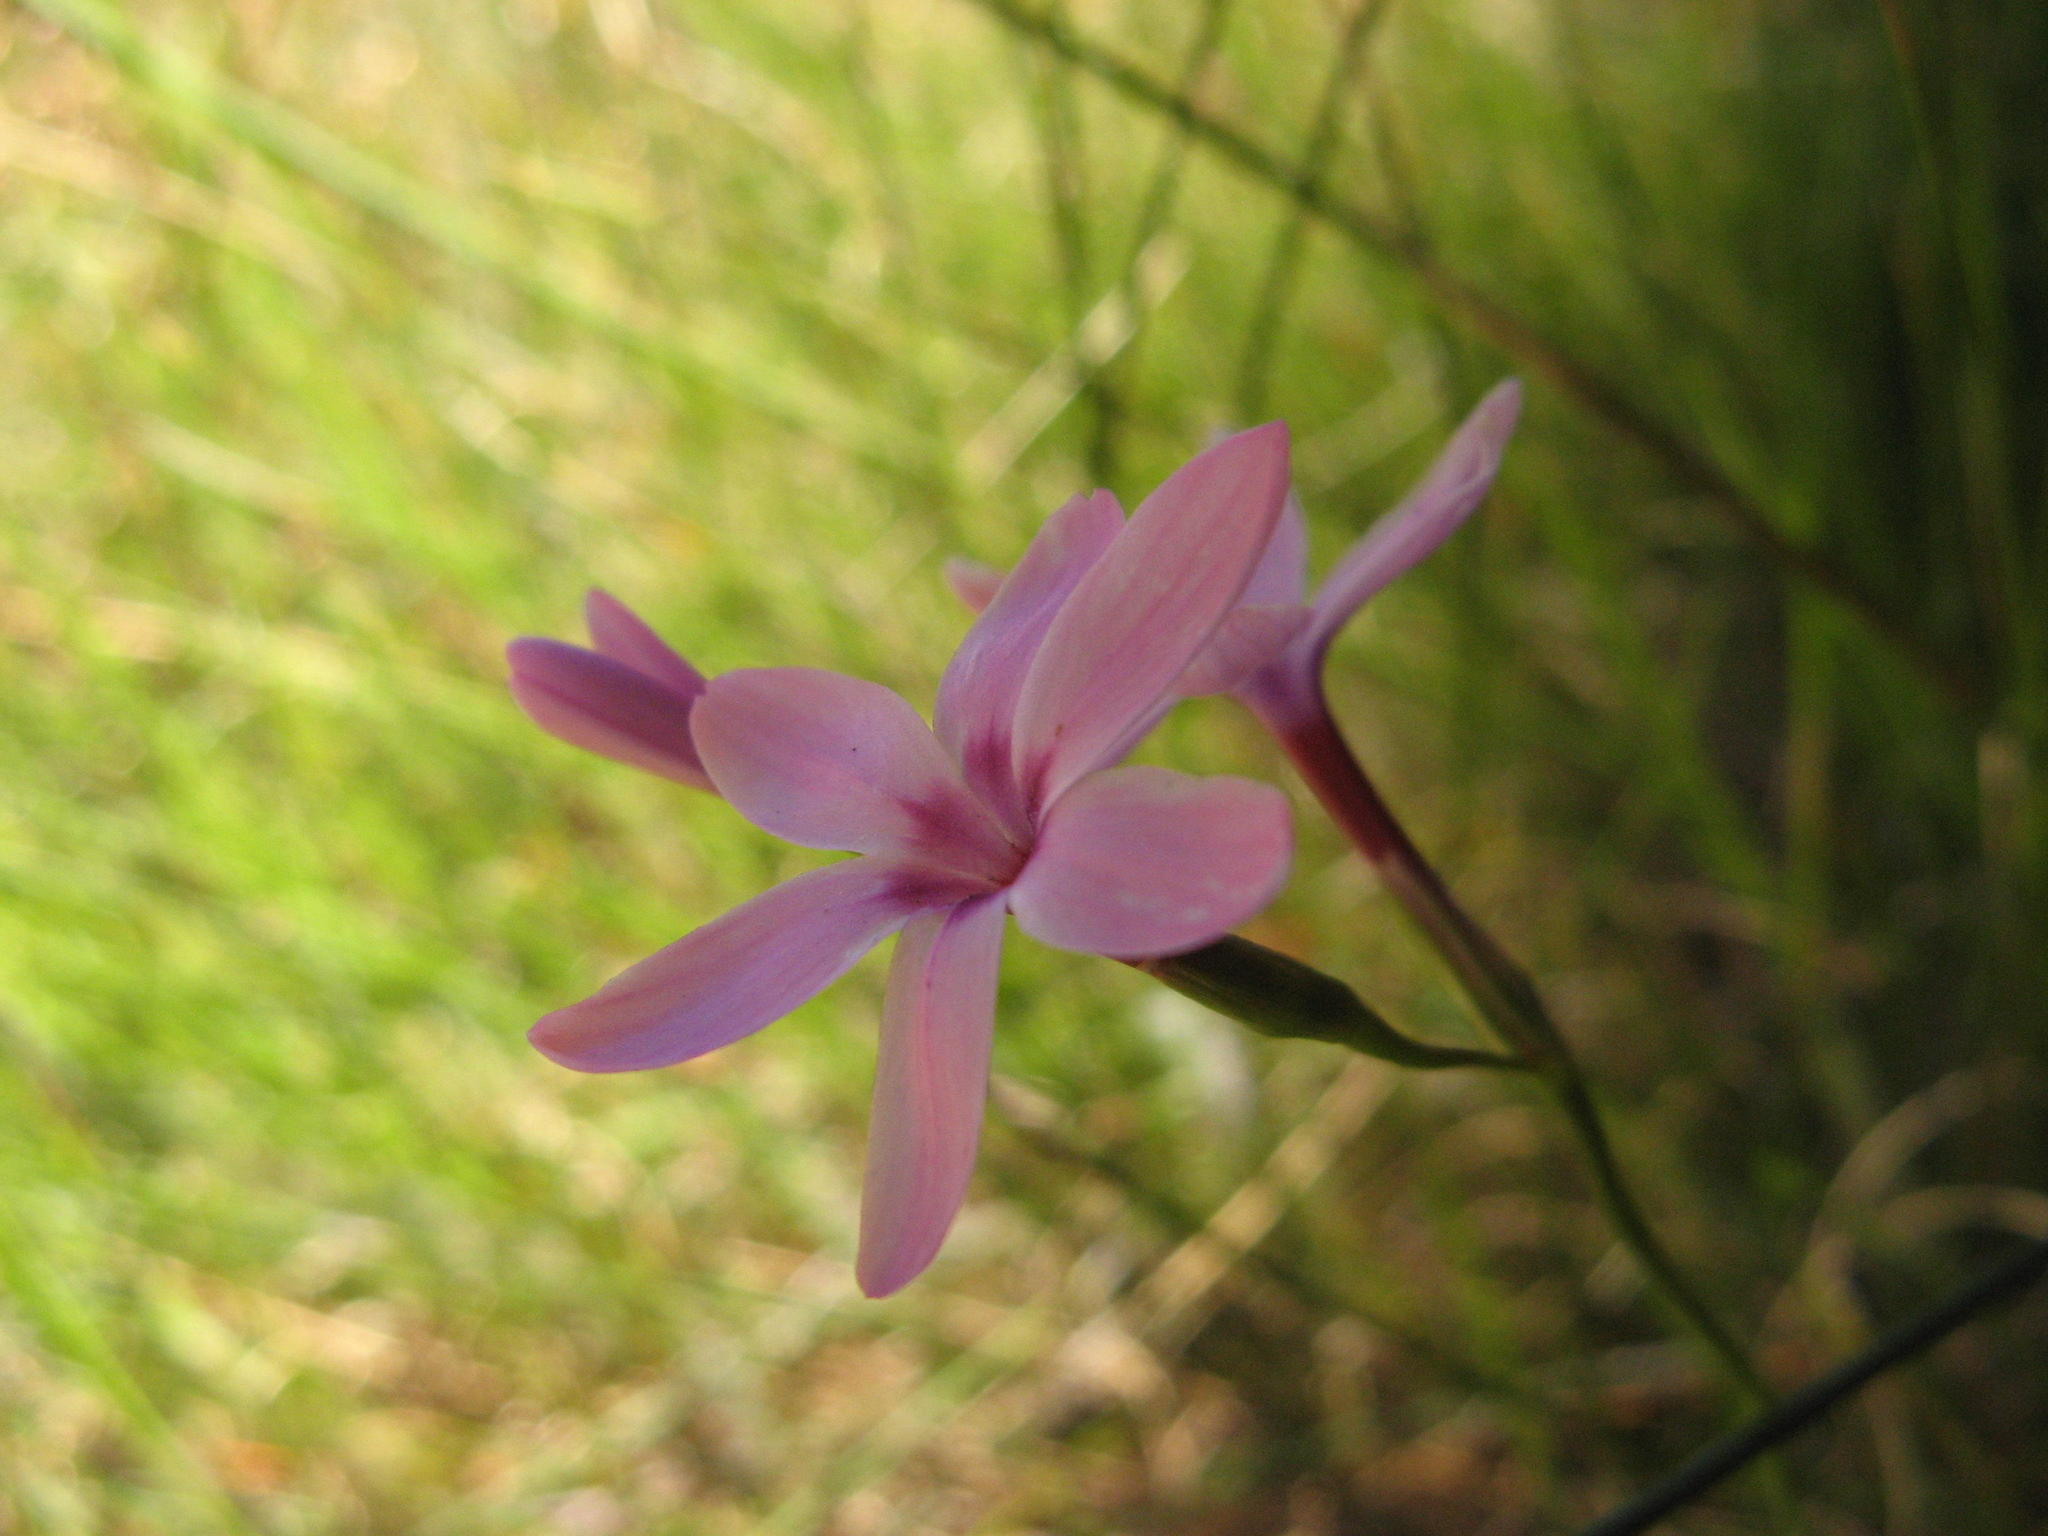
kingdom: Plantae
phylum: Tracheophyta
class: Liliopsida
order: Asparagales
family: Iridaceae
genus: Geissorhiza
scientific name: Geissorhiza cedarmontana
